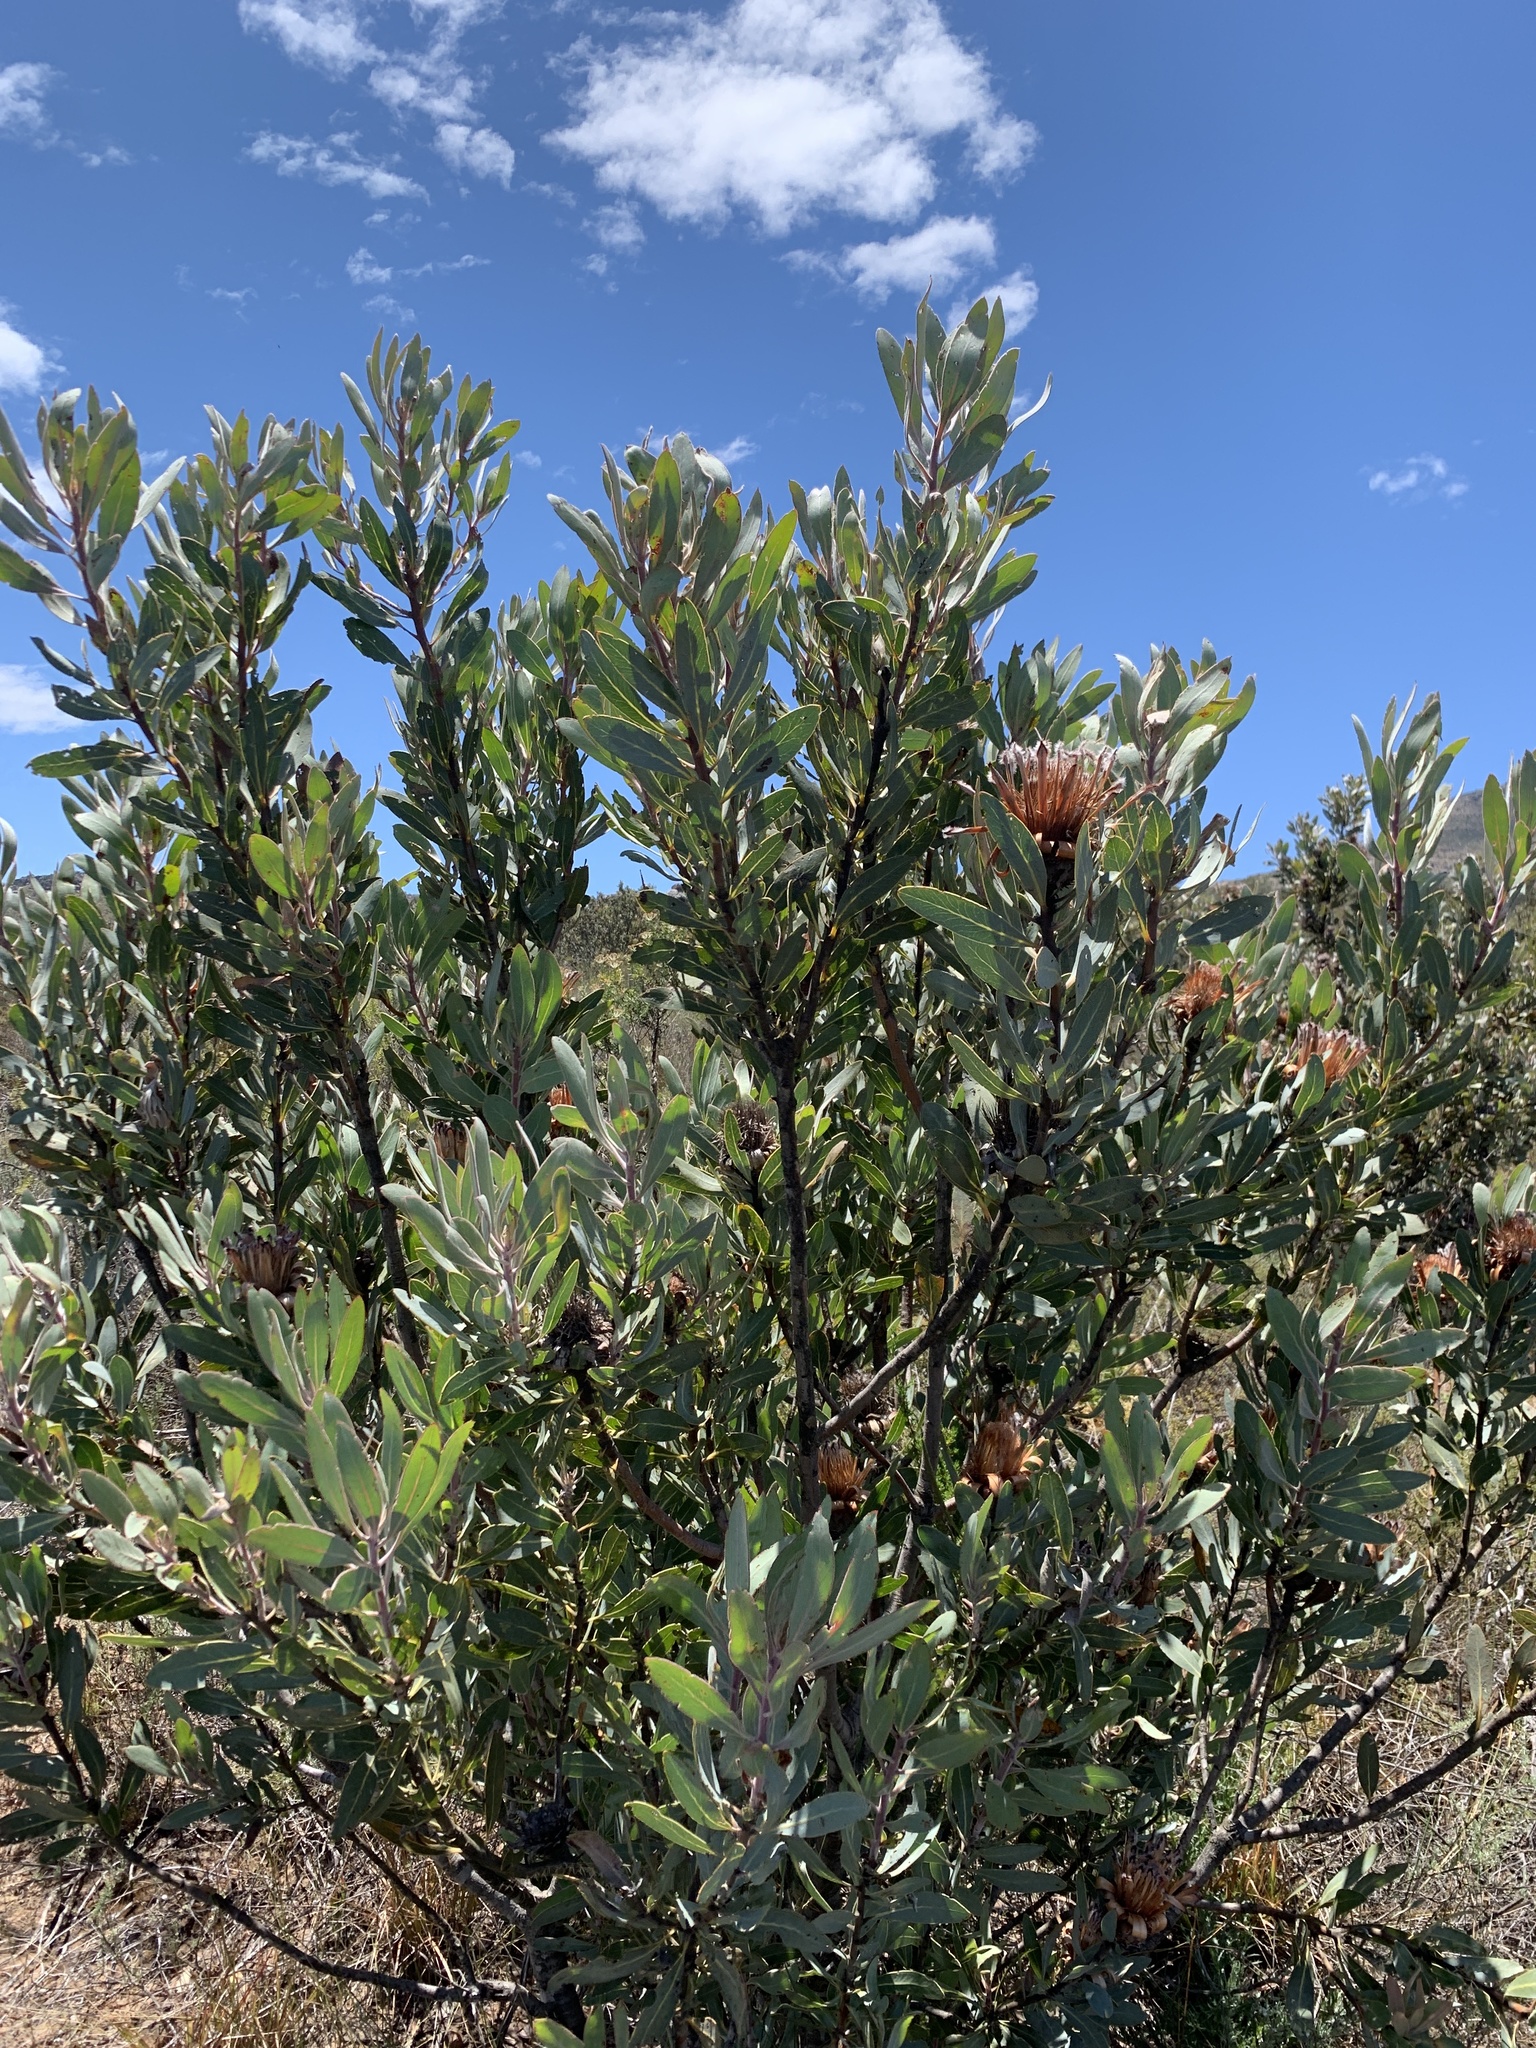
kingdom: Plantae
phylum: Tracheophyta
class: Magnoliopsida
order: Proteales
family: Proteaceae
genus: Protea
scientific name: Protea laurifolia
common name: Grey-leaf sugarbsh
